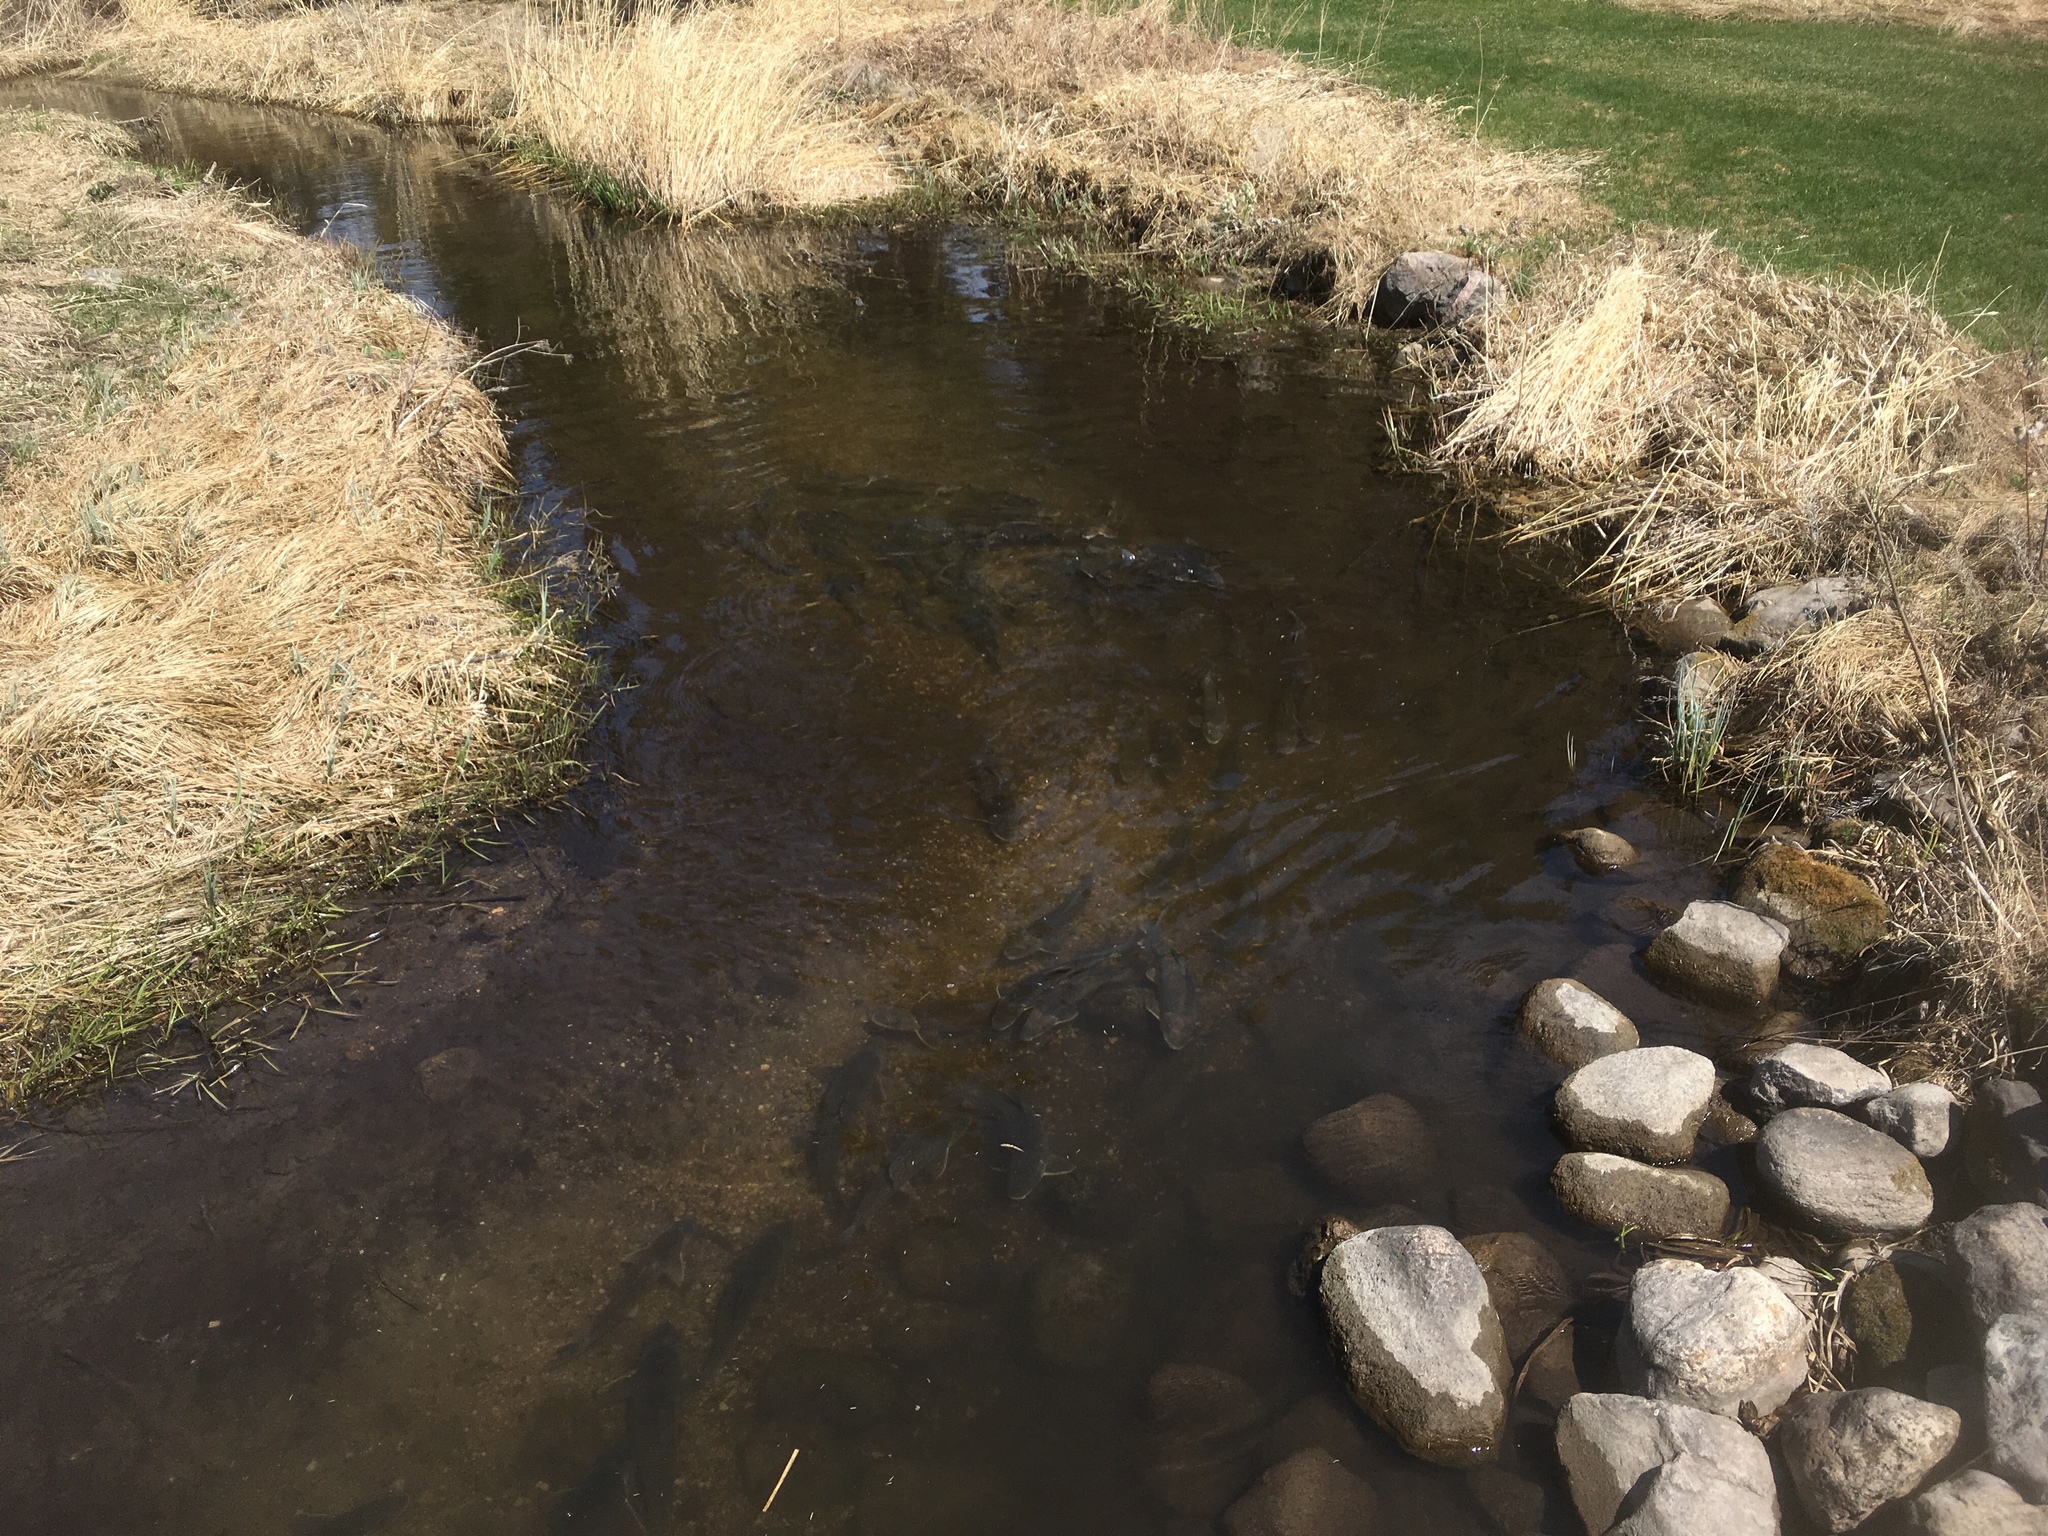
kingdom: Animalia
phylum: Chordata
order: Cypriniformes
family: Catostomidae
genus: Catostomus
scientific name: Catostomus commersonii
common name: White sucker
